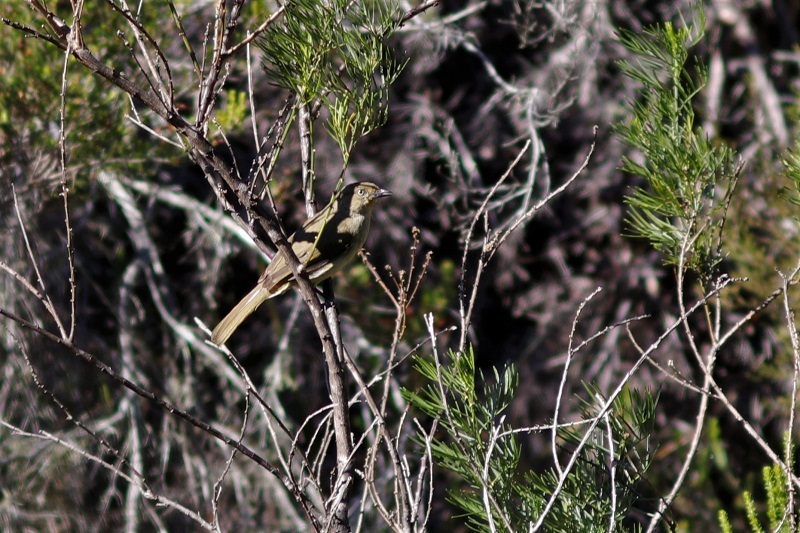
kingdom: Animalia
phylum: Chordata
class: Aves
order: Passeriformes
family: Pycnonotidae
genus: Andropadus
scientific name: Andropadus importunus
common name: Sombre greenbul
